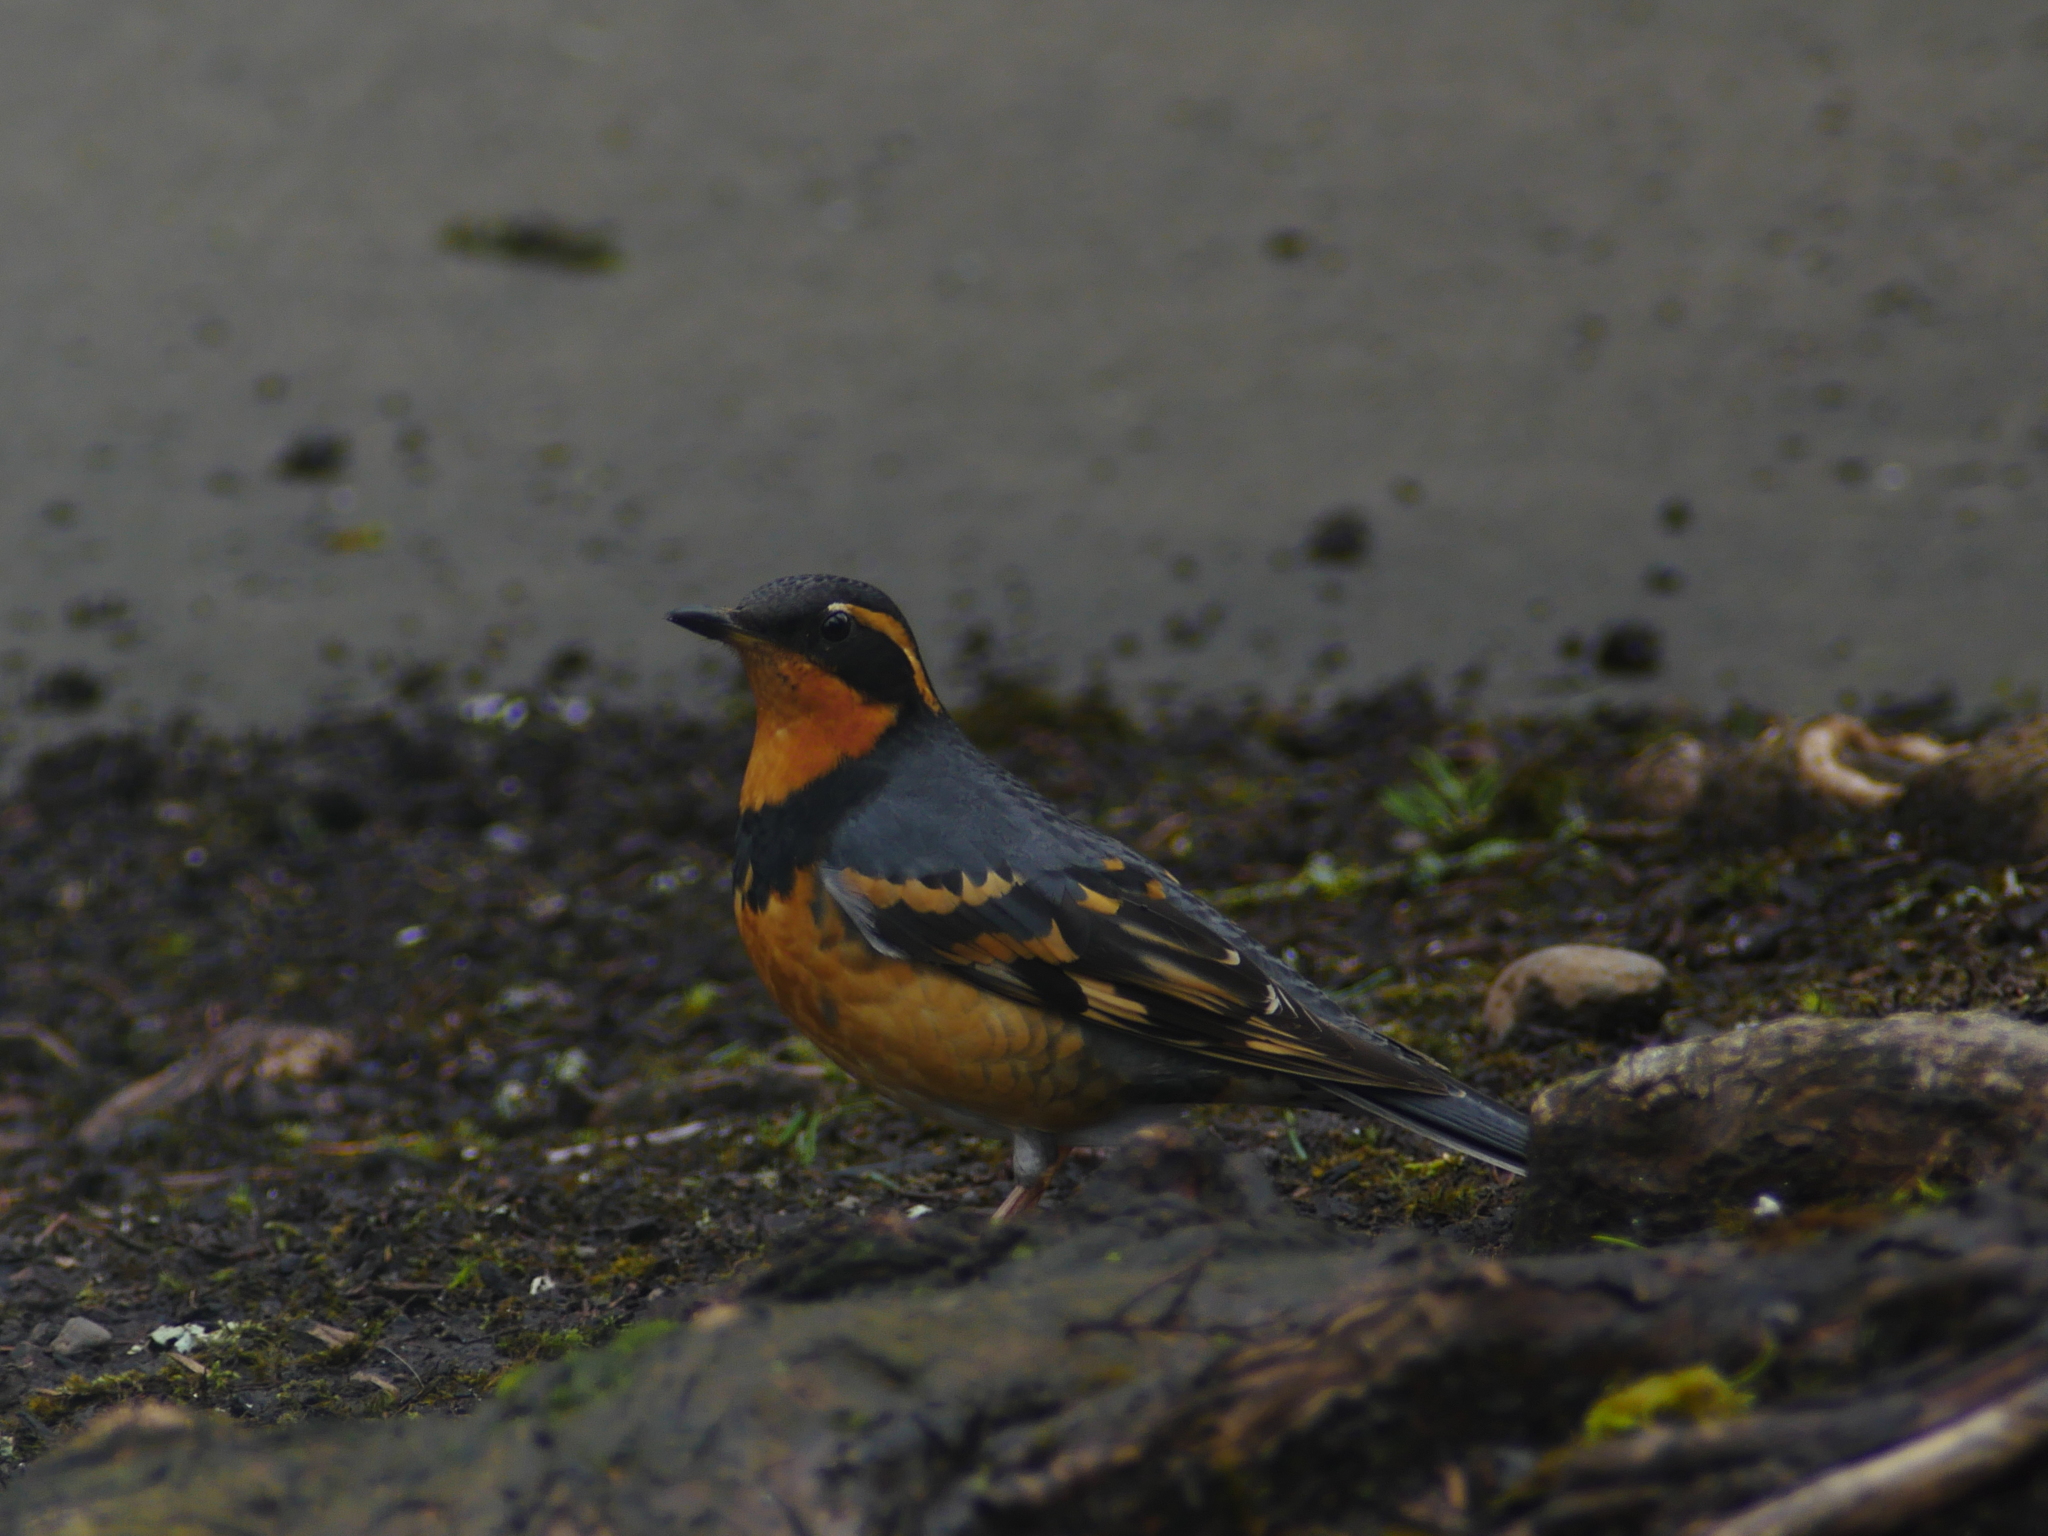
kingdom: Animalia
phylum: Chordata
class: Aves
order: Passeriformes
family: Turdidae
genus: Ixoreus
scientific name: Ixoreus naevius
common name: Varied thrush
